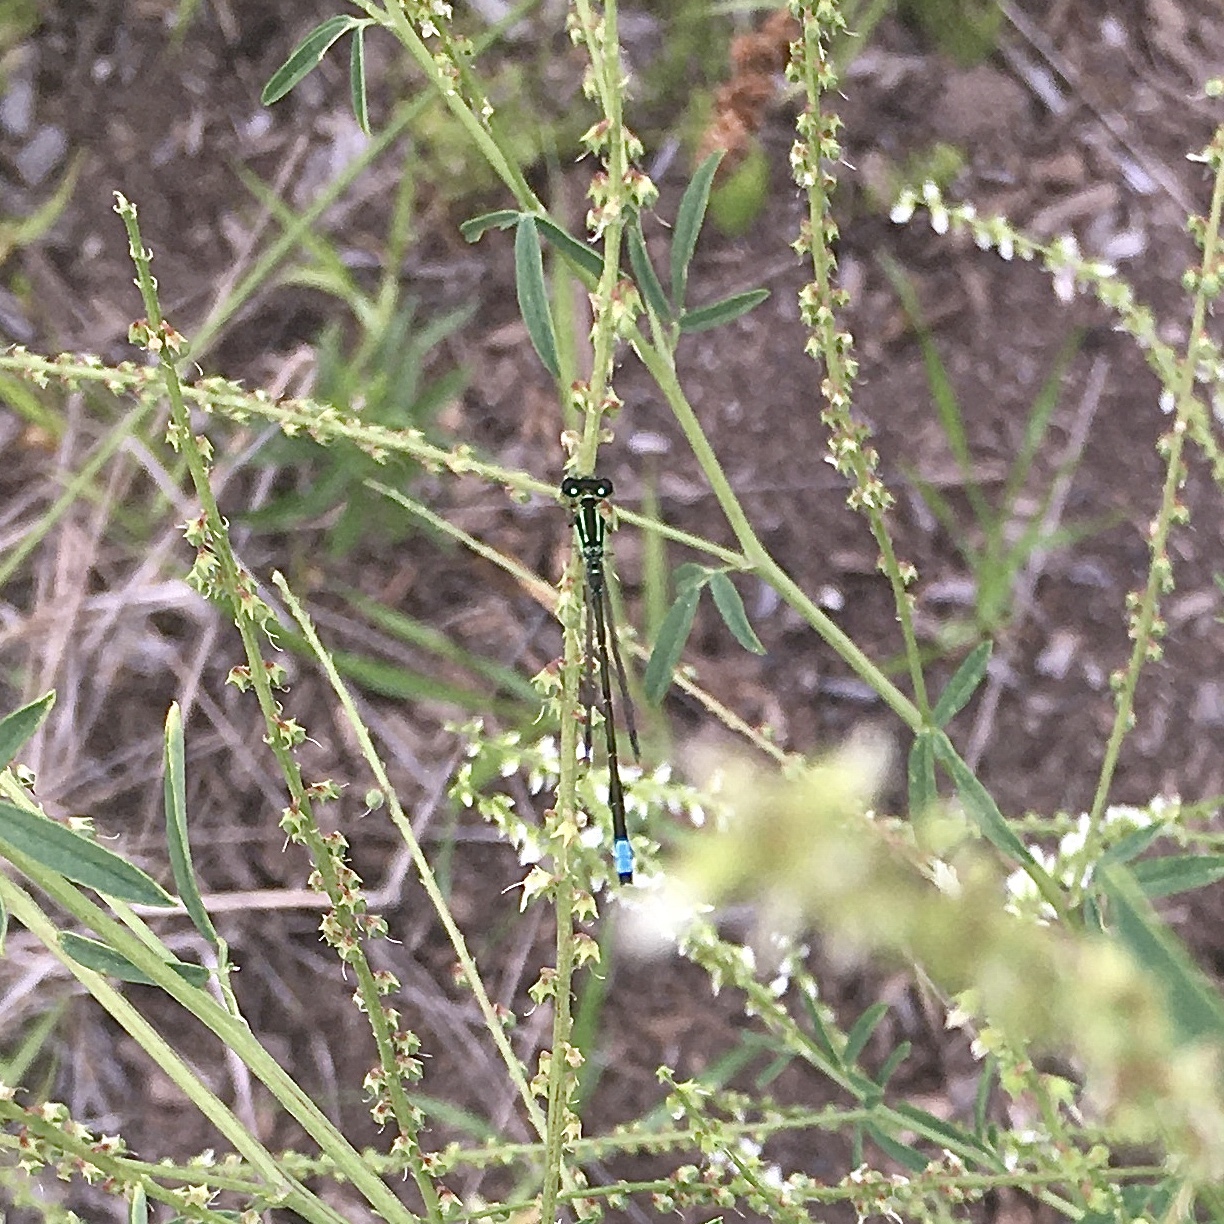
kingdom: Animalia
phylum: Arthropoda
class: Insecta
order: Odonata
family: Coenagrionidae
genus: Ischnura
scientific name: Ischnura verticalis
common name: Eastern forktail
